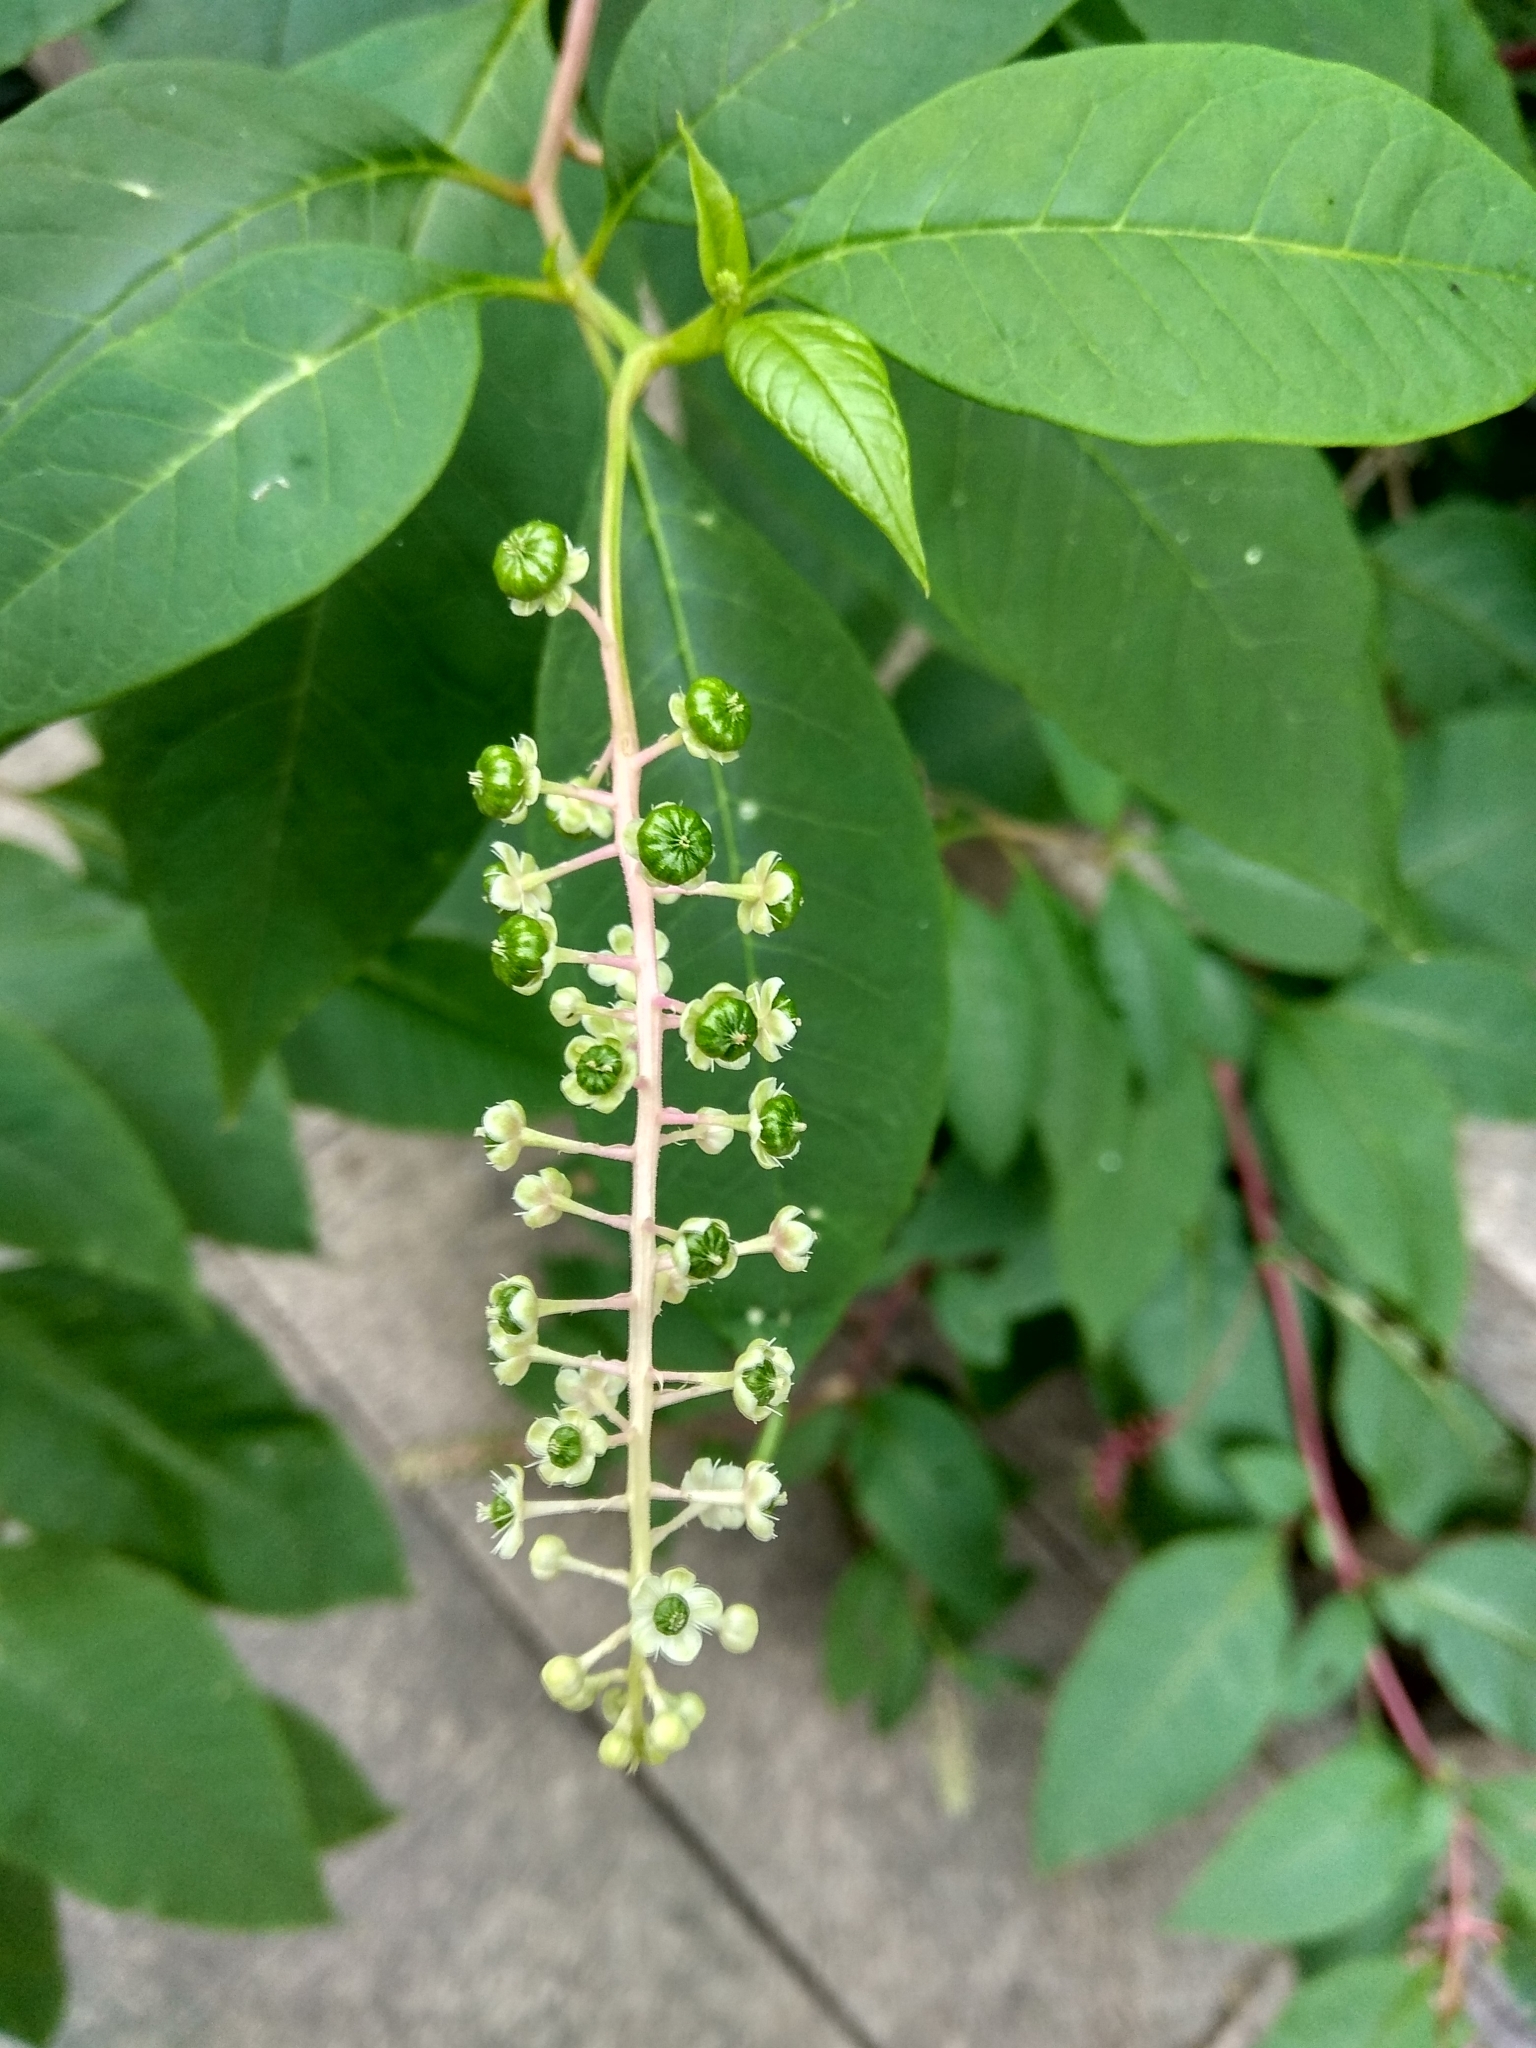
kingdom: Plantae
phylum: Tracheophyta
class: Magnoliopsida
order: Caryophyllales
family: Phytolaccaceae
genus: Phytolacca
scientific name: Phytolacca americana
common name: American pokeweed
